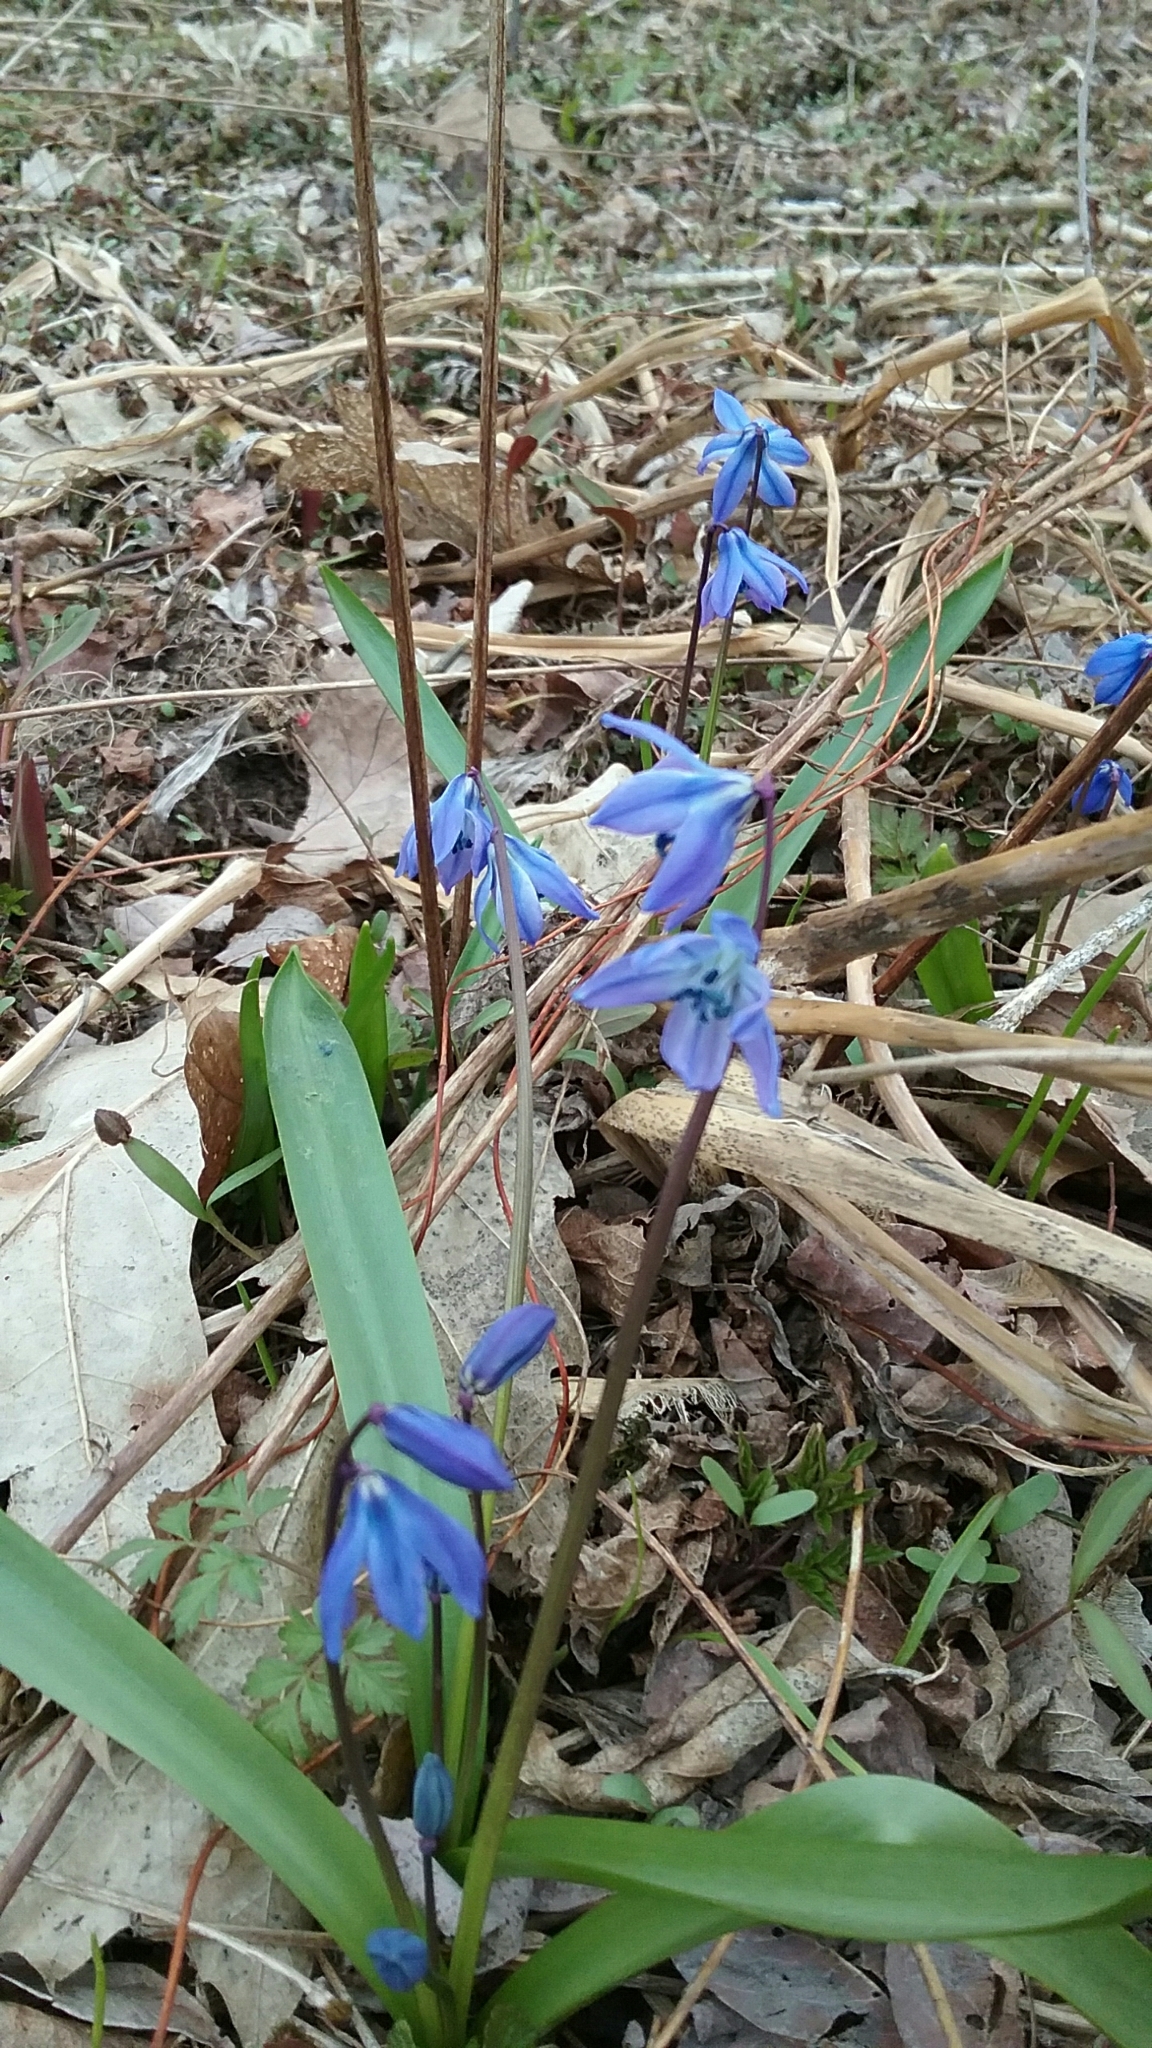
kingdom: Plantae
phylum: Tracheophyta
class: Liliopsida
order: Asparagales
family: Asparagaceae
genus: Scilla
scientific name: Scilla siberica
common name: Siberian squill
